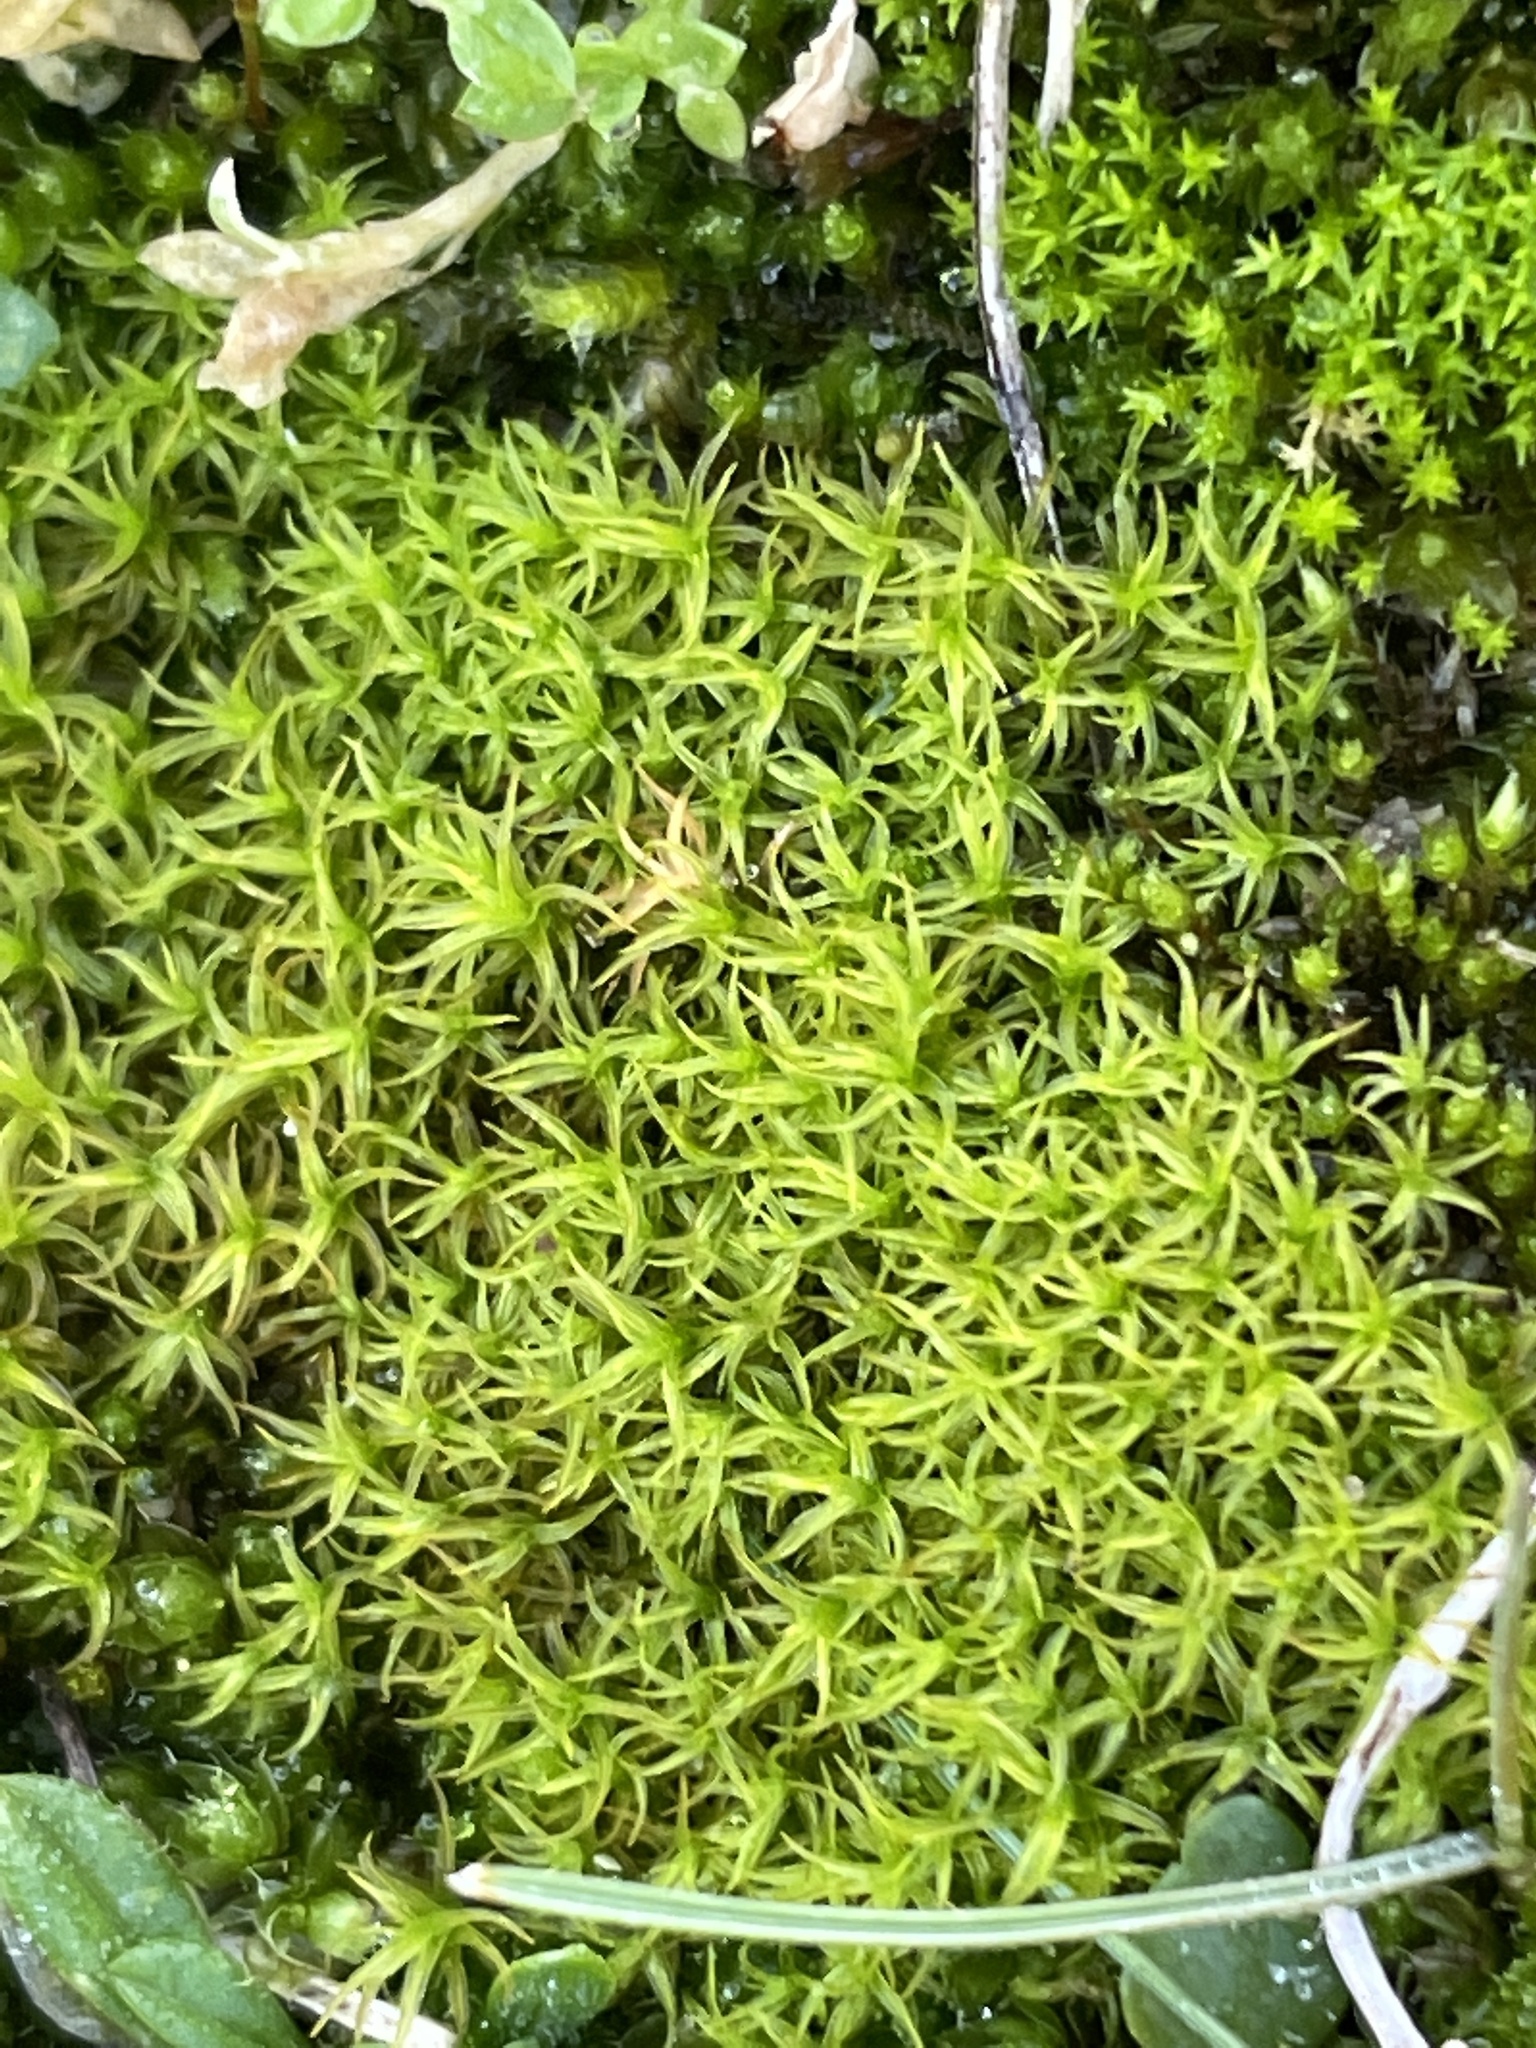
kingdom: Plantae
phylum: Bryophyta
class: Bryopsida
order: Pottiales
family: Pottiaceae
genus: Vinealobryum
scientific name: Vinealobryum vineale
